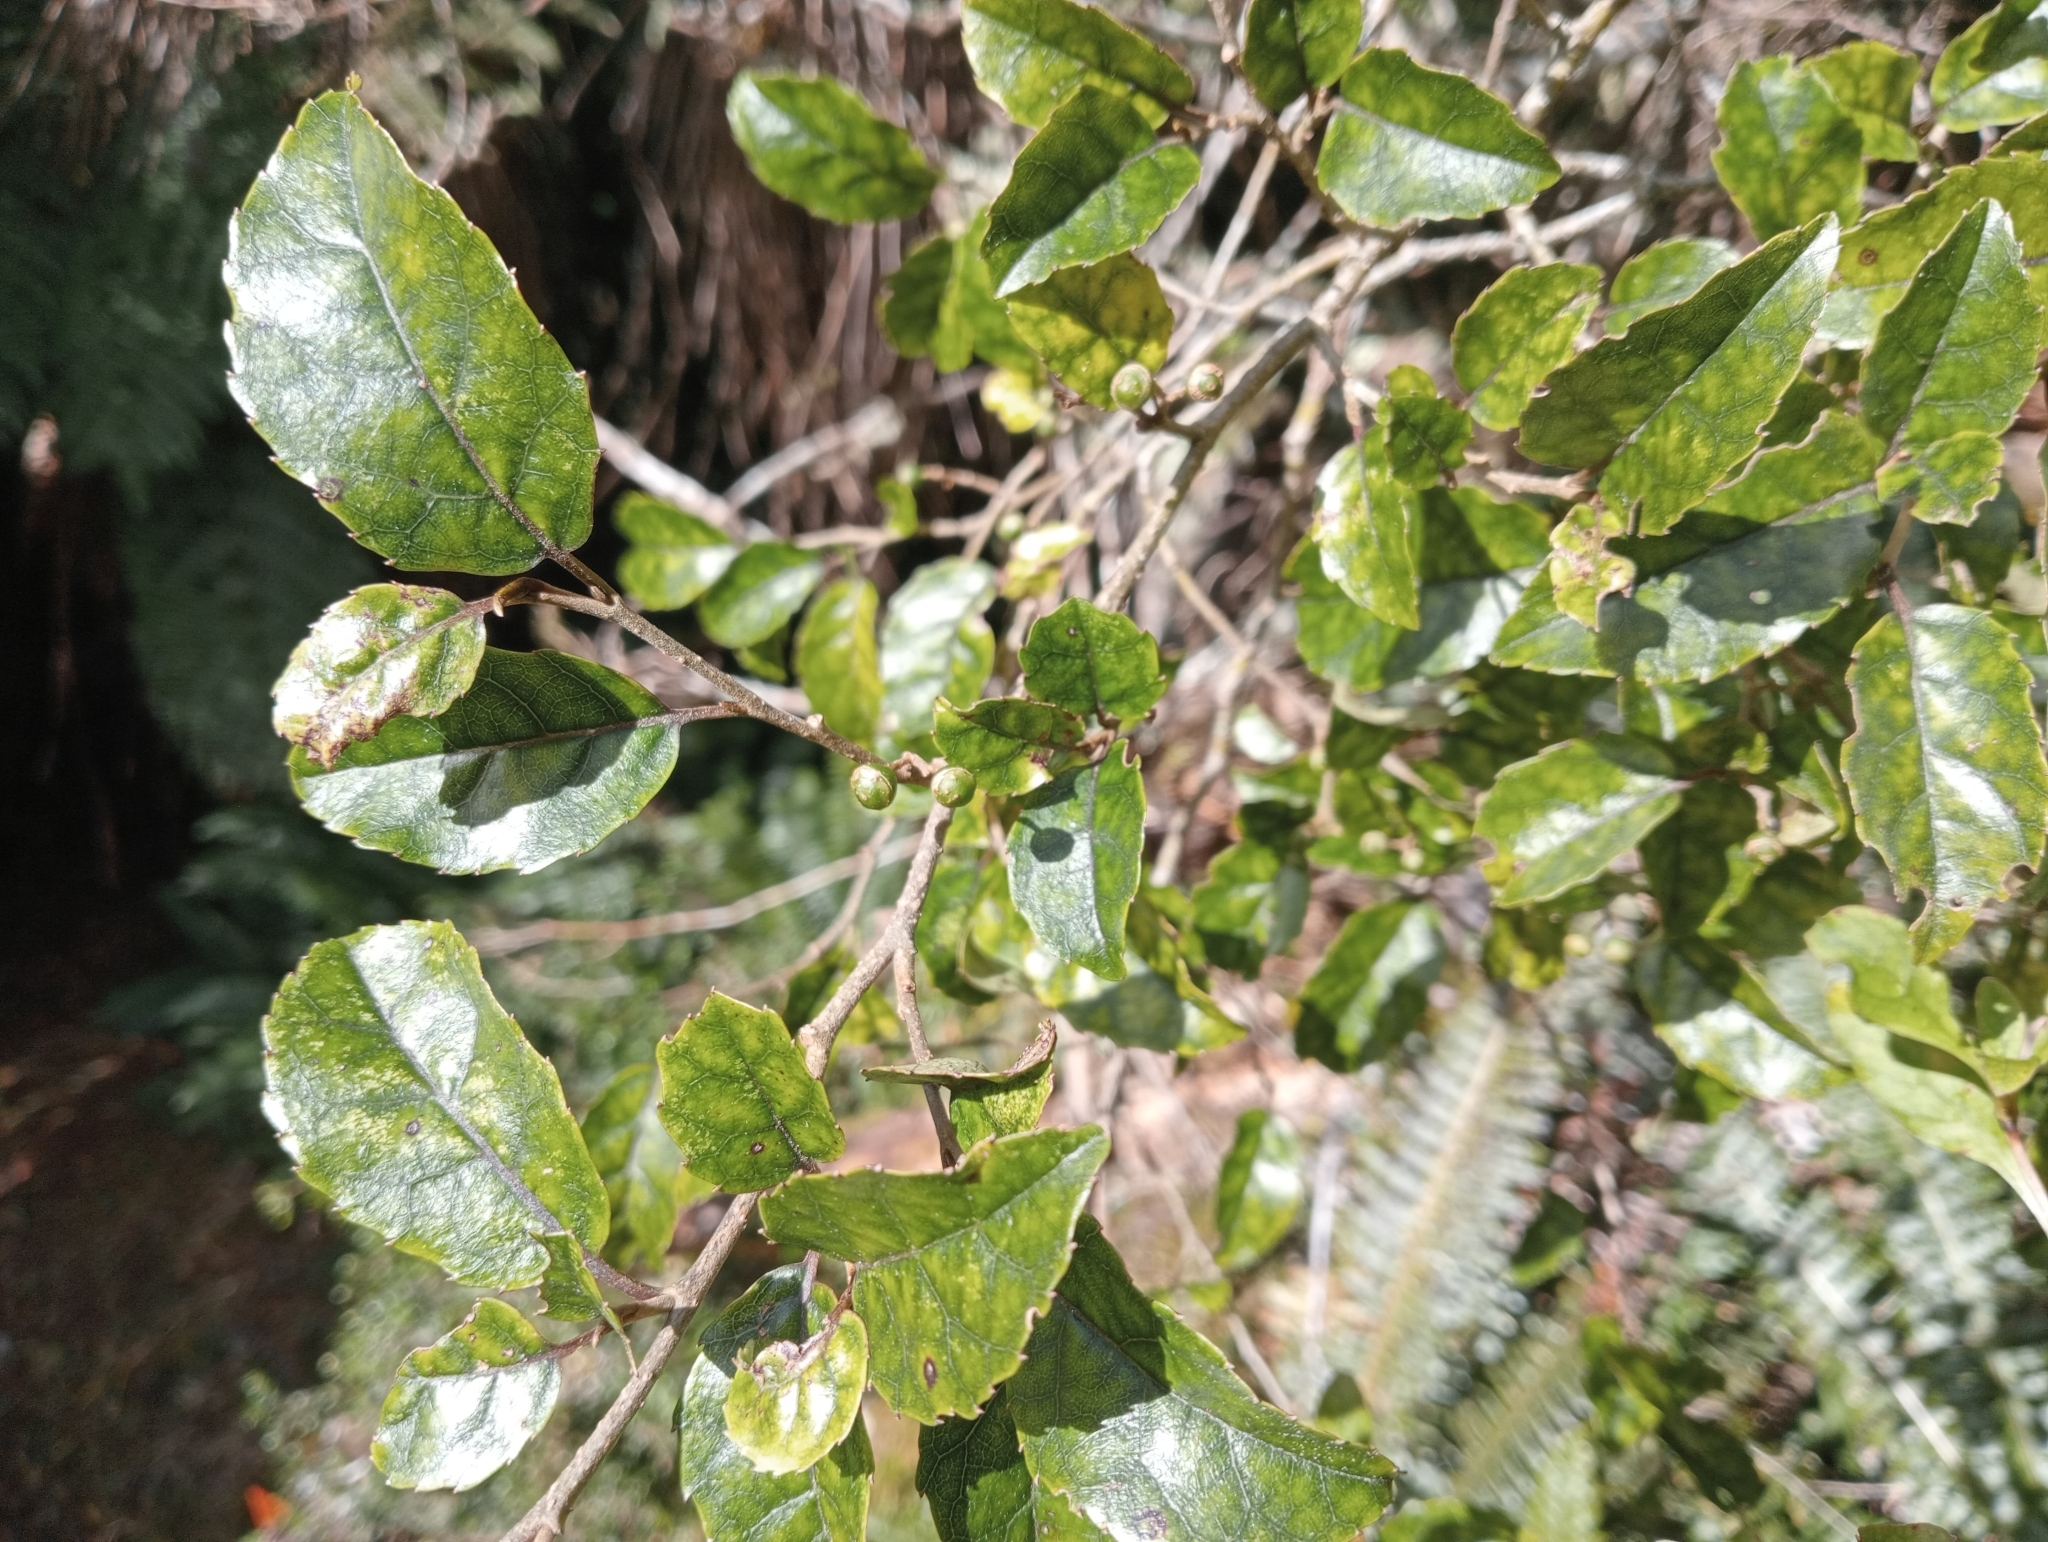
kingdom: Plantae
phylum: Tracheophyta
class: Magnoliopsida
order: Asterales
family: Rousseaceae
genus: Carpodetus
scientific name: Carpodetus serratus
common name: White mapau
